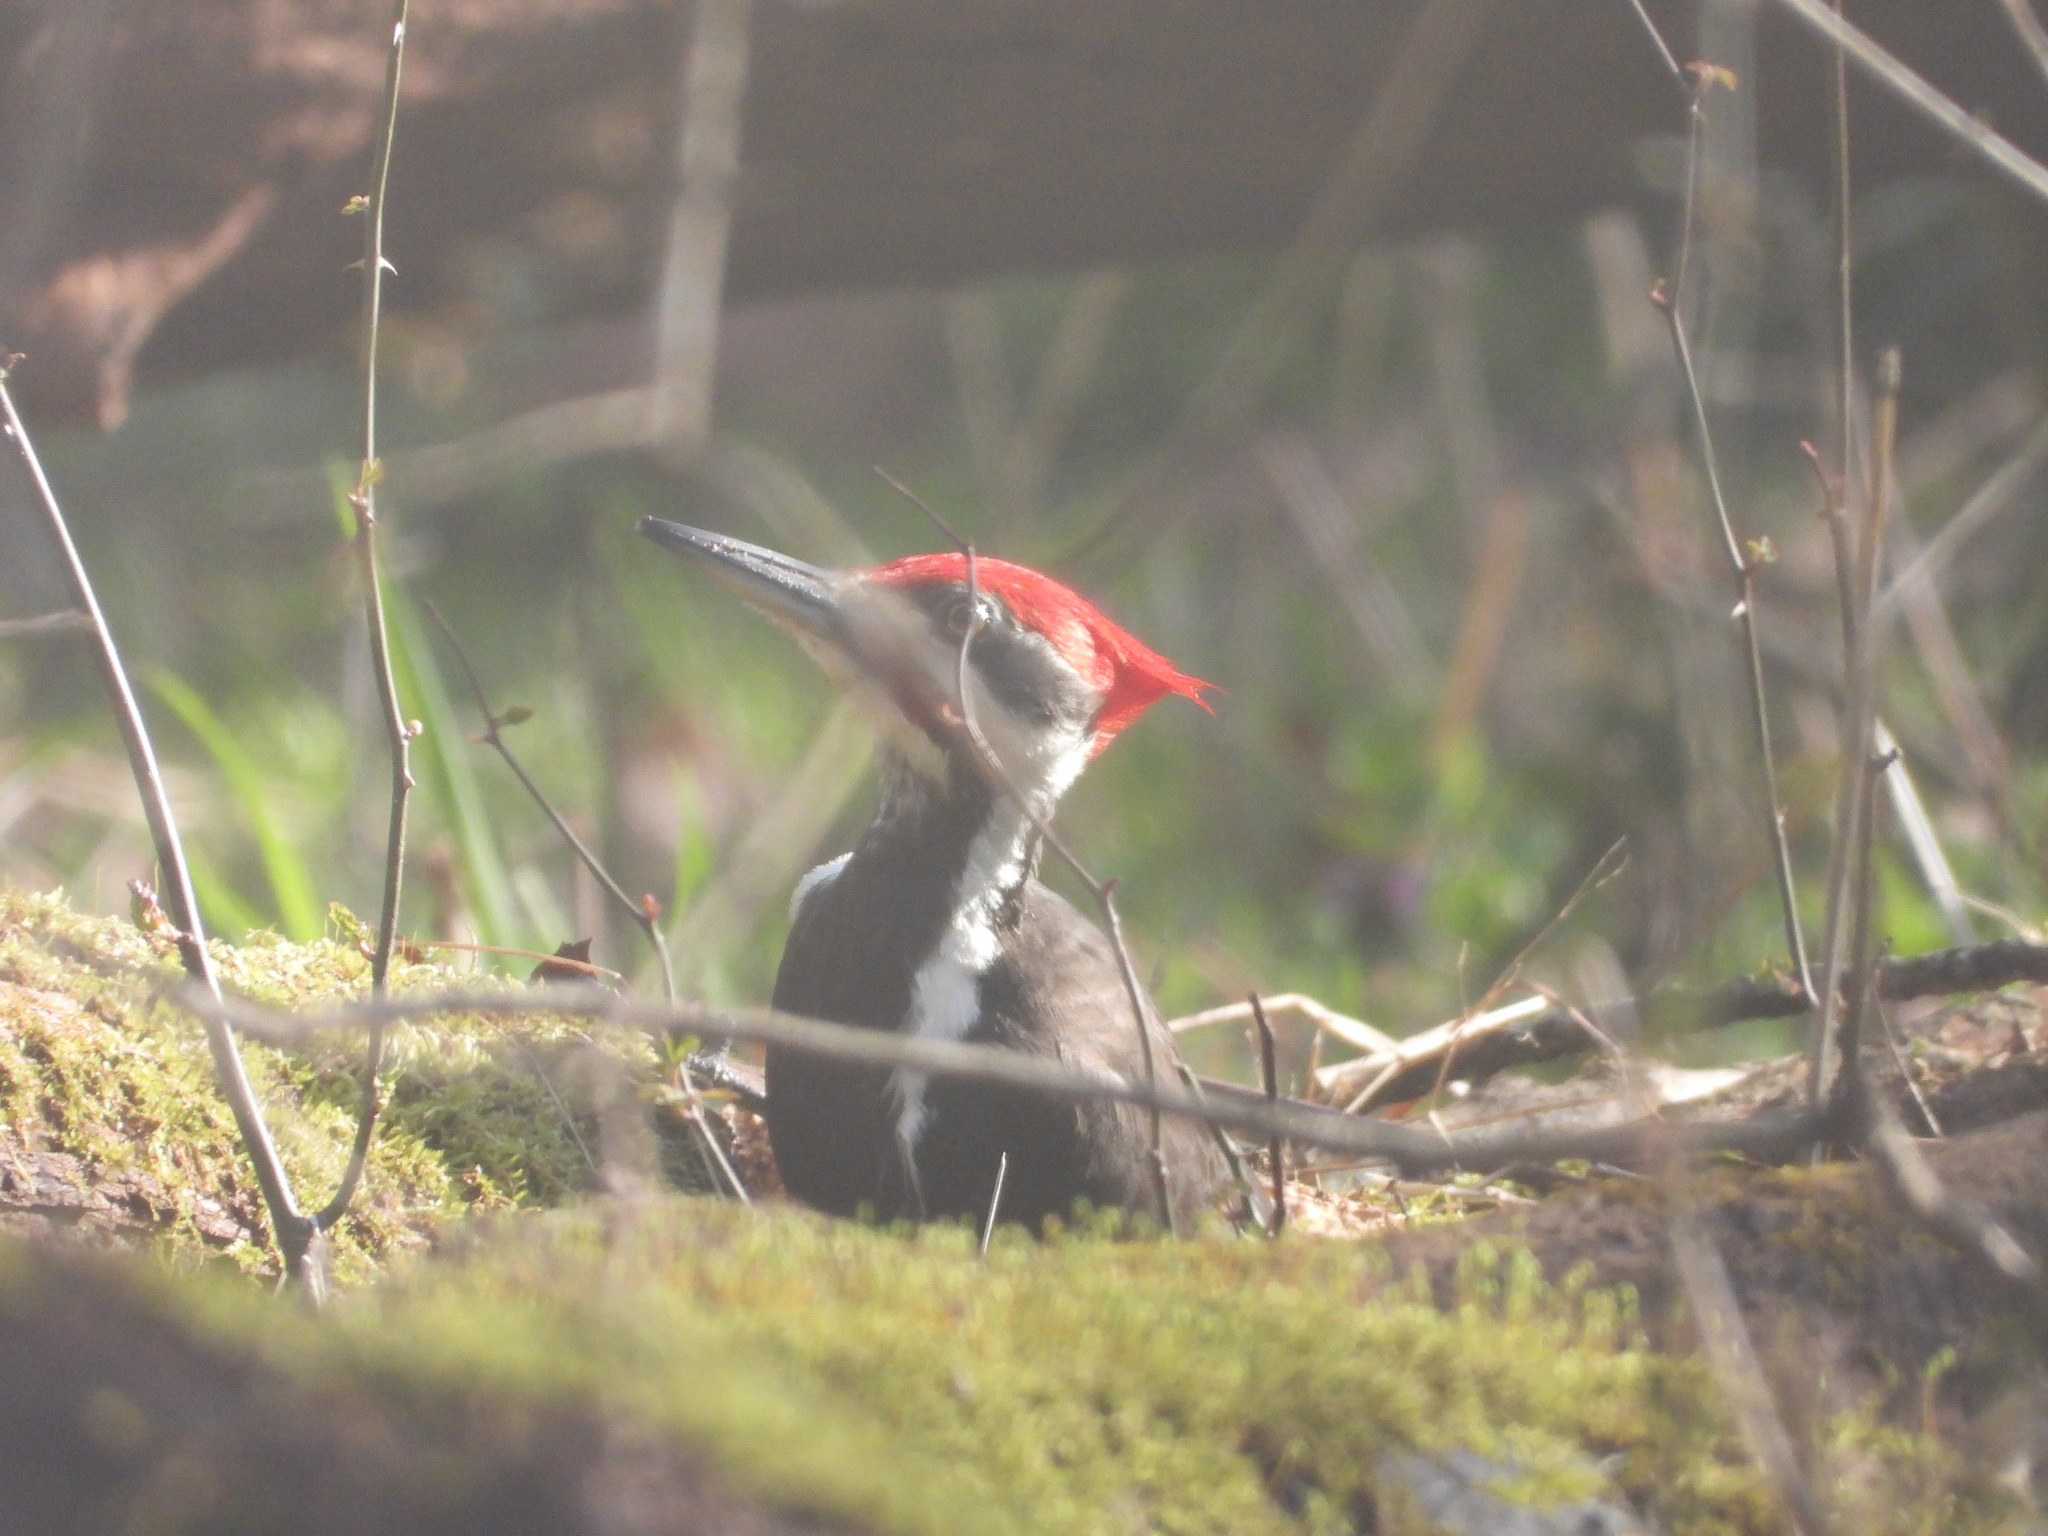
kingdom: Animalia
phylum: Chordata
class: Aves
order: Piciformes
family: Picidae
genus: Dryocopus
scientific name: Dryocopus pileatus
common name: Pileated woodpecker
